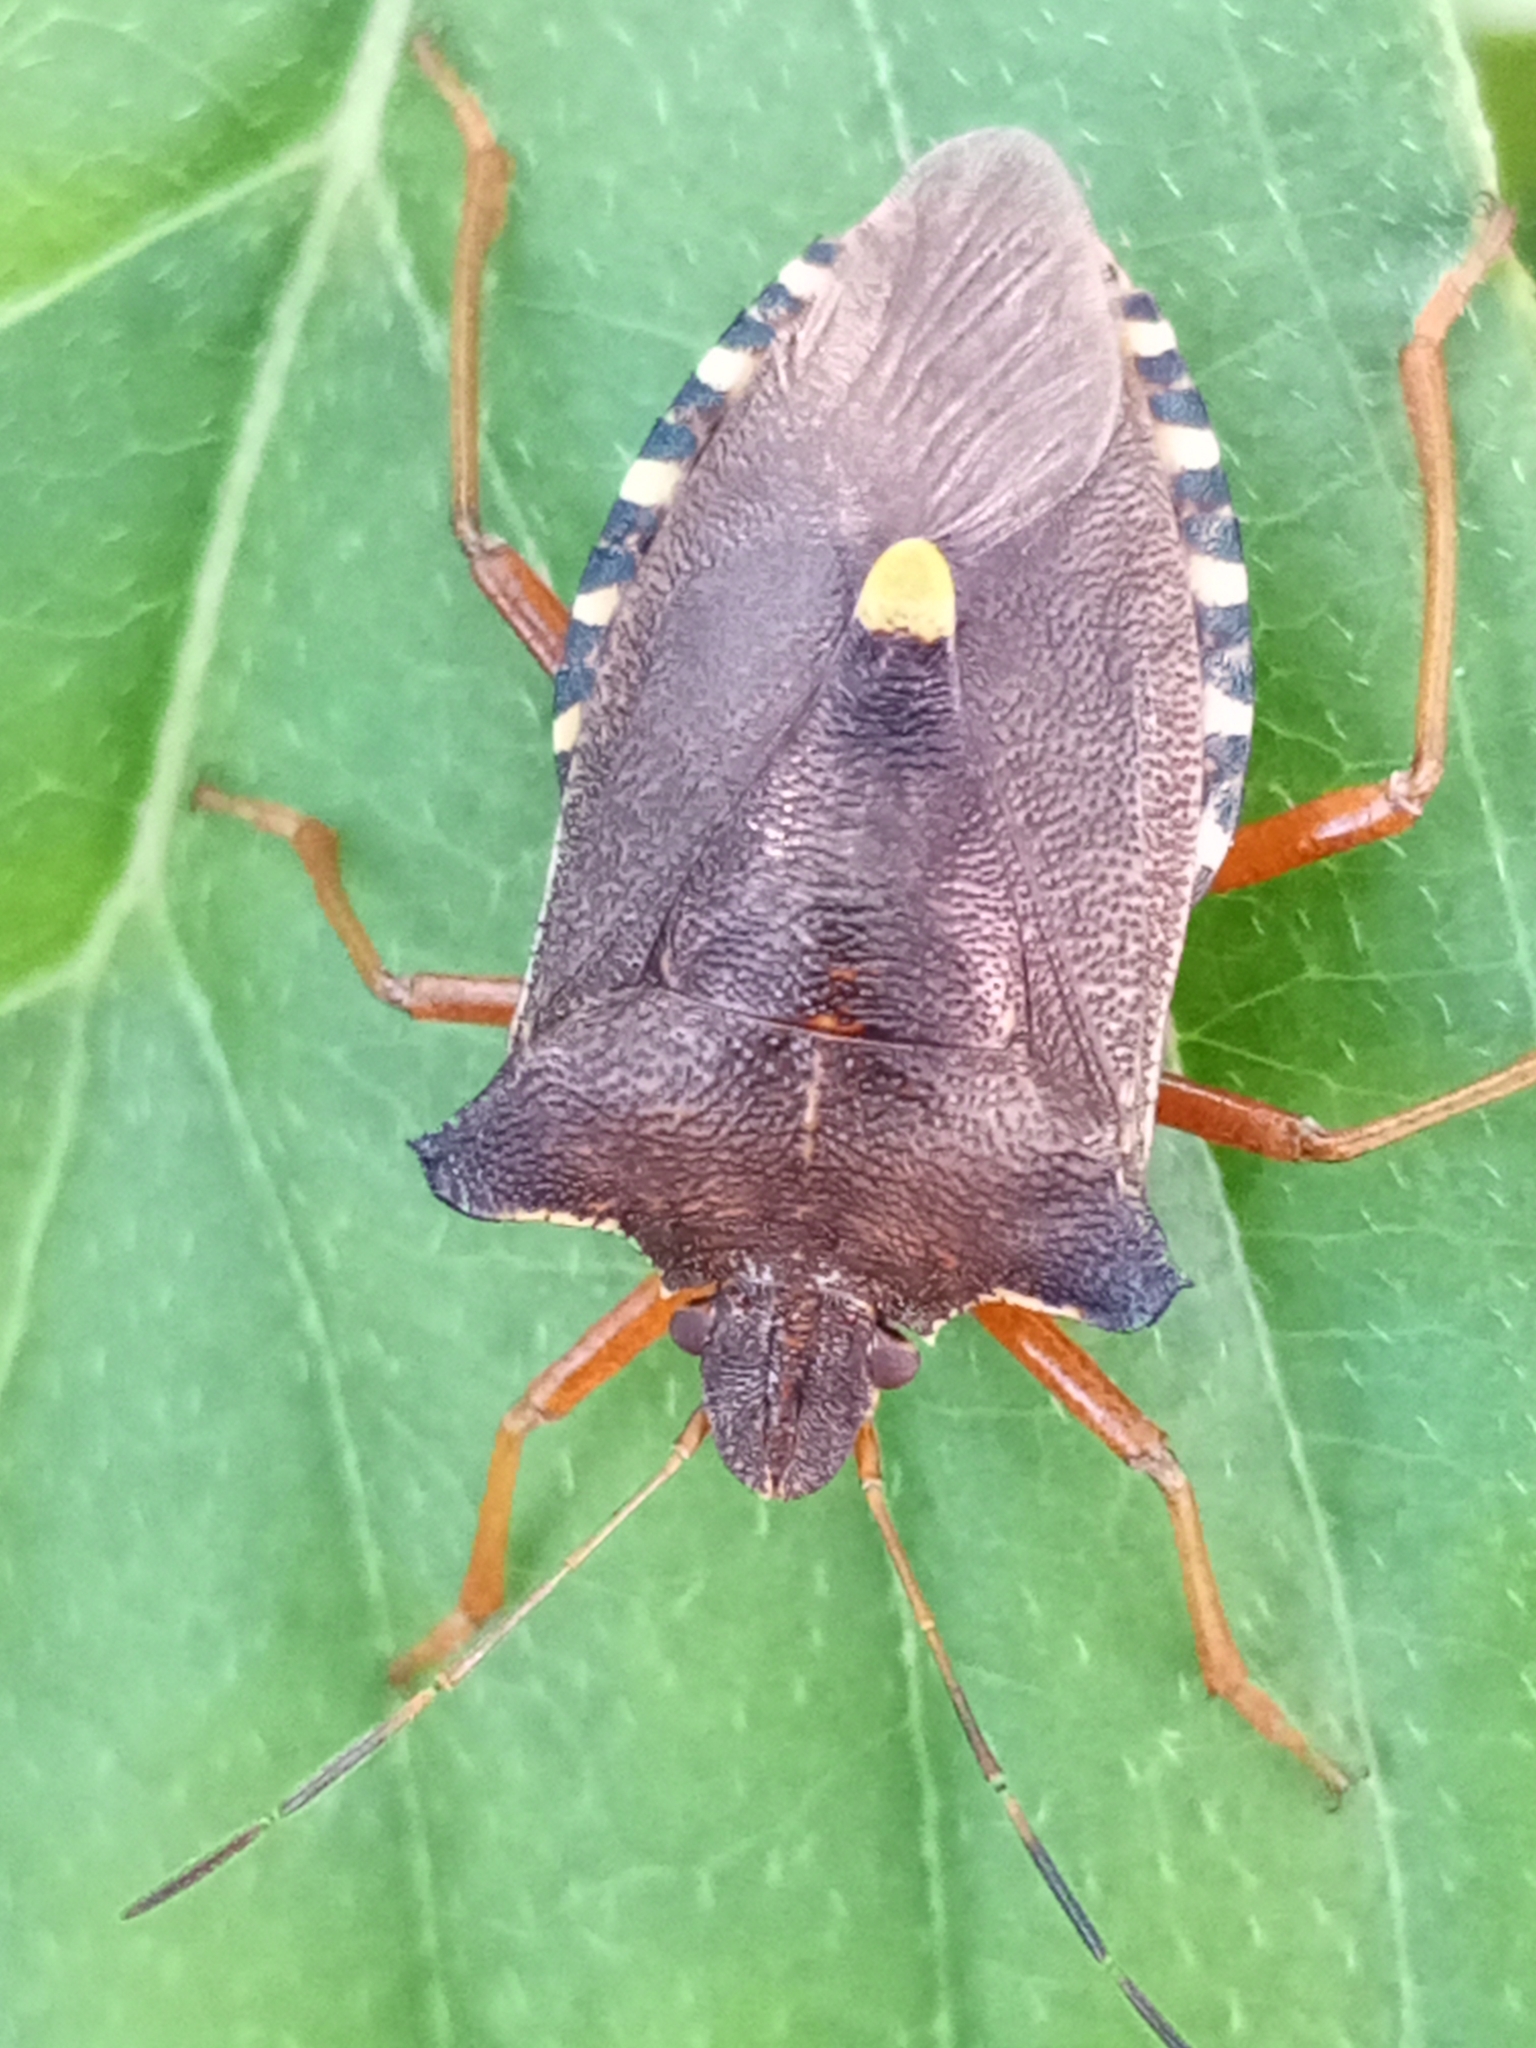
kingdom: Animalia
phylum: Arthropoda
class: Insecta
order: Hemiptera
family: Pentatomidae
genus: Pentatoma
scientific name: Pentatoma rufipes
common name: Forest bug
